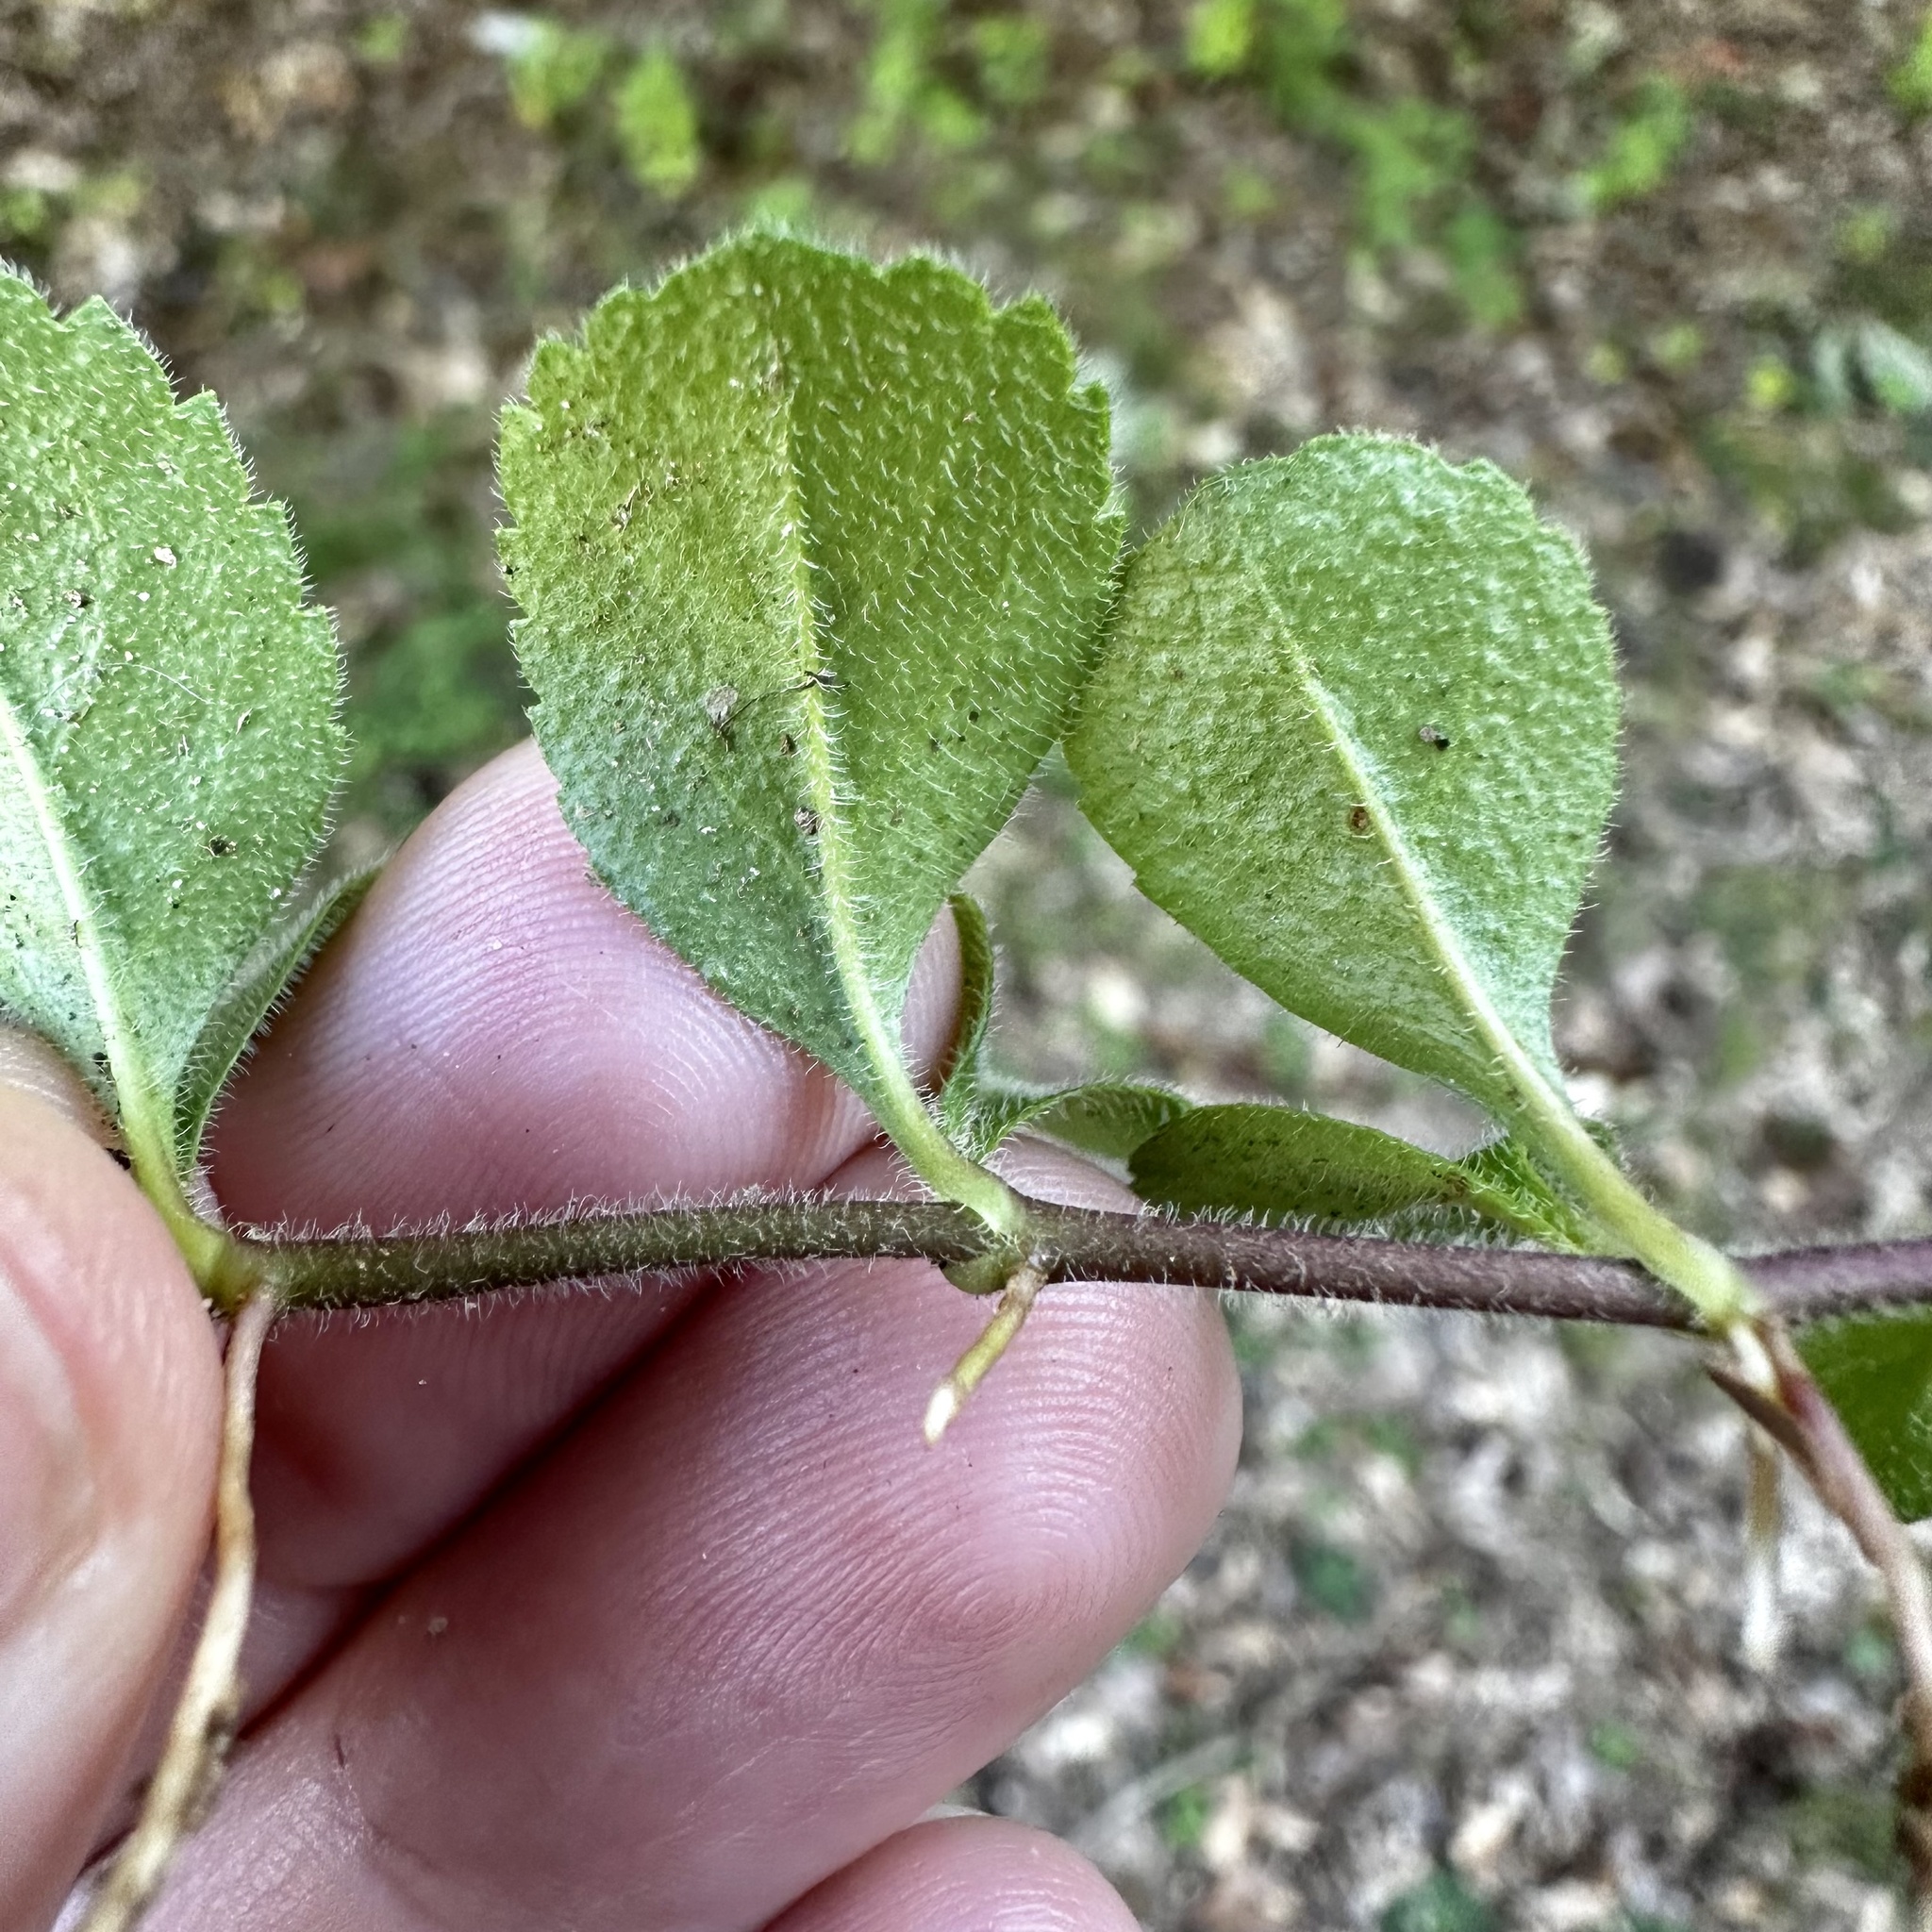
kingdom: Plantae
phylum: Tracheophyta
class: Magnoliopsida
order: Lamiales
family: Plantaginaceae
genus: Veronica
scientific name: Veronica officinalis
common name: Common speedwell
